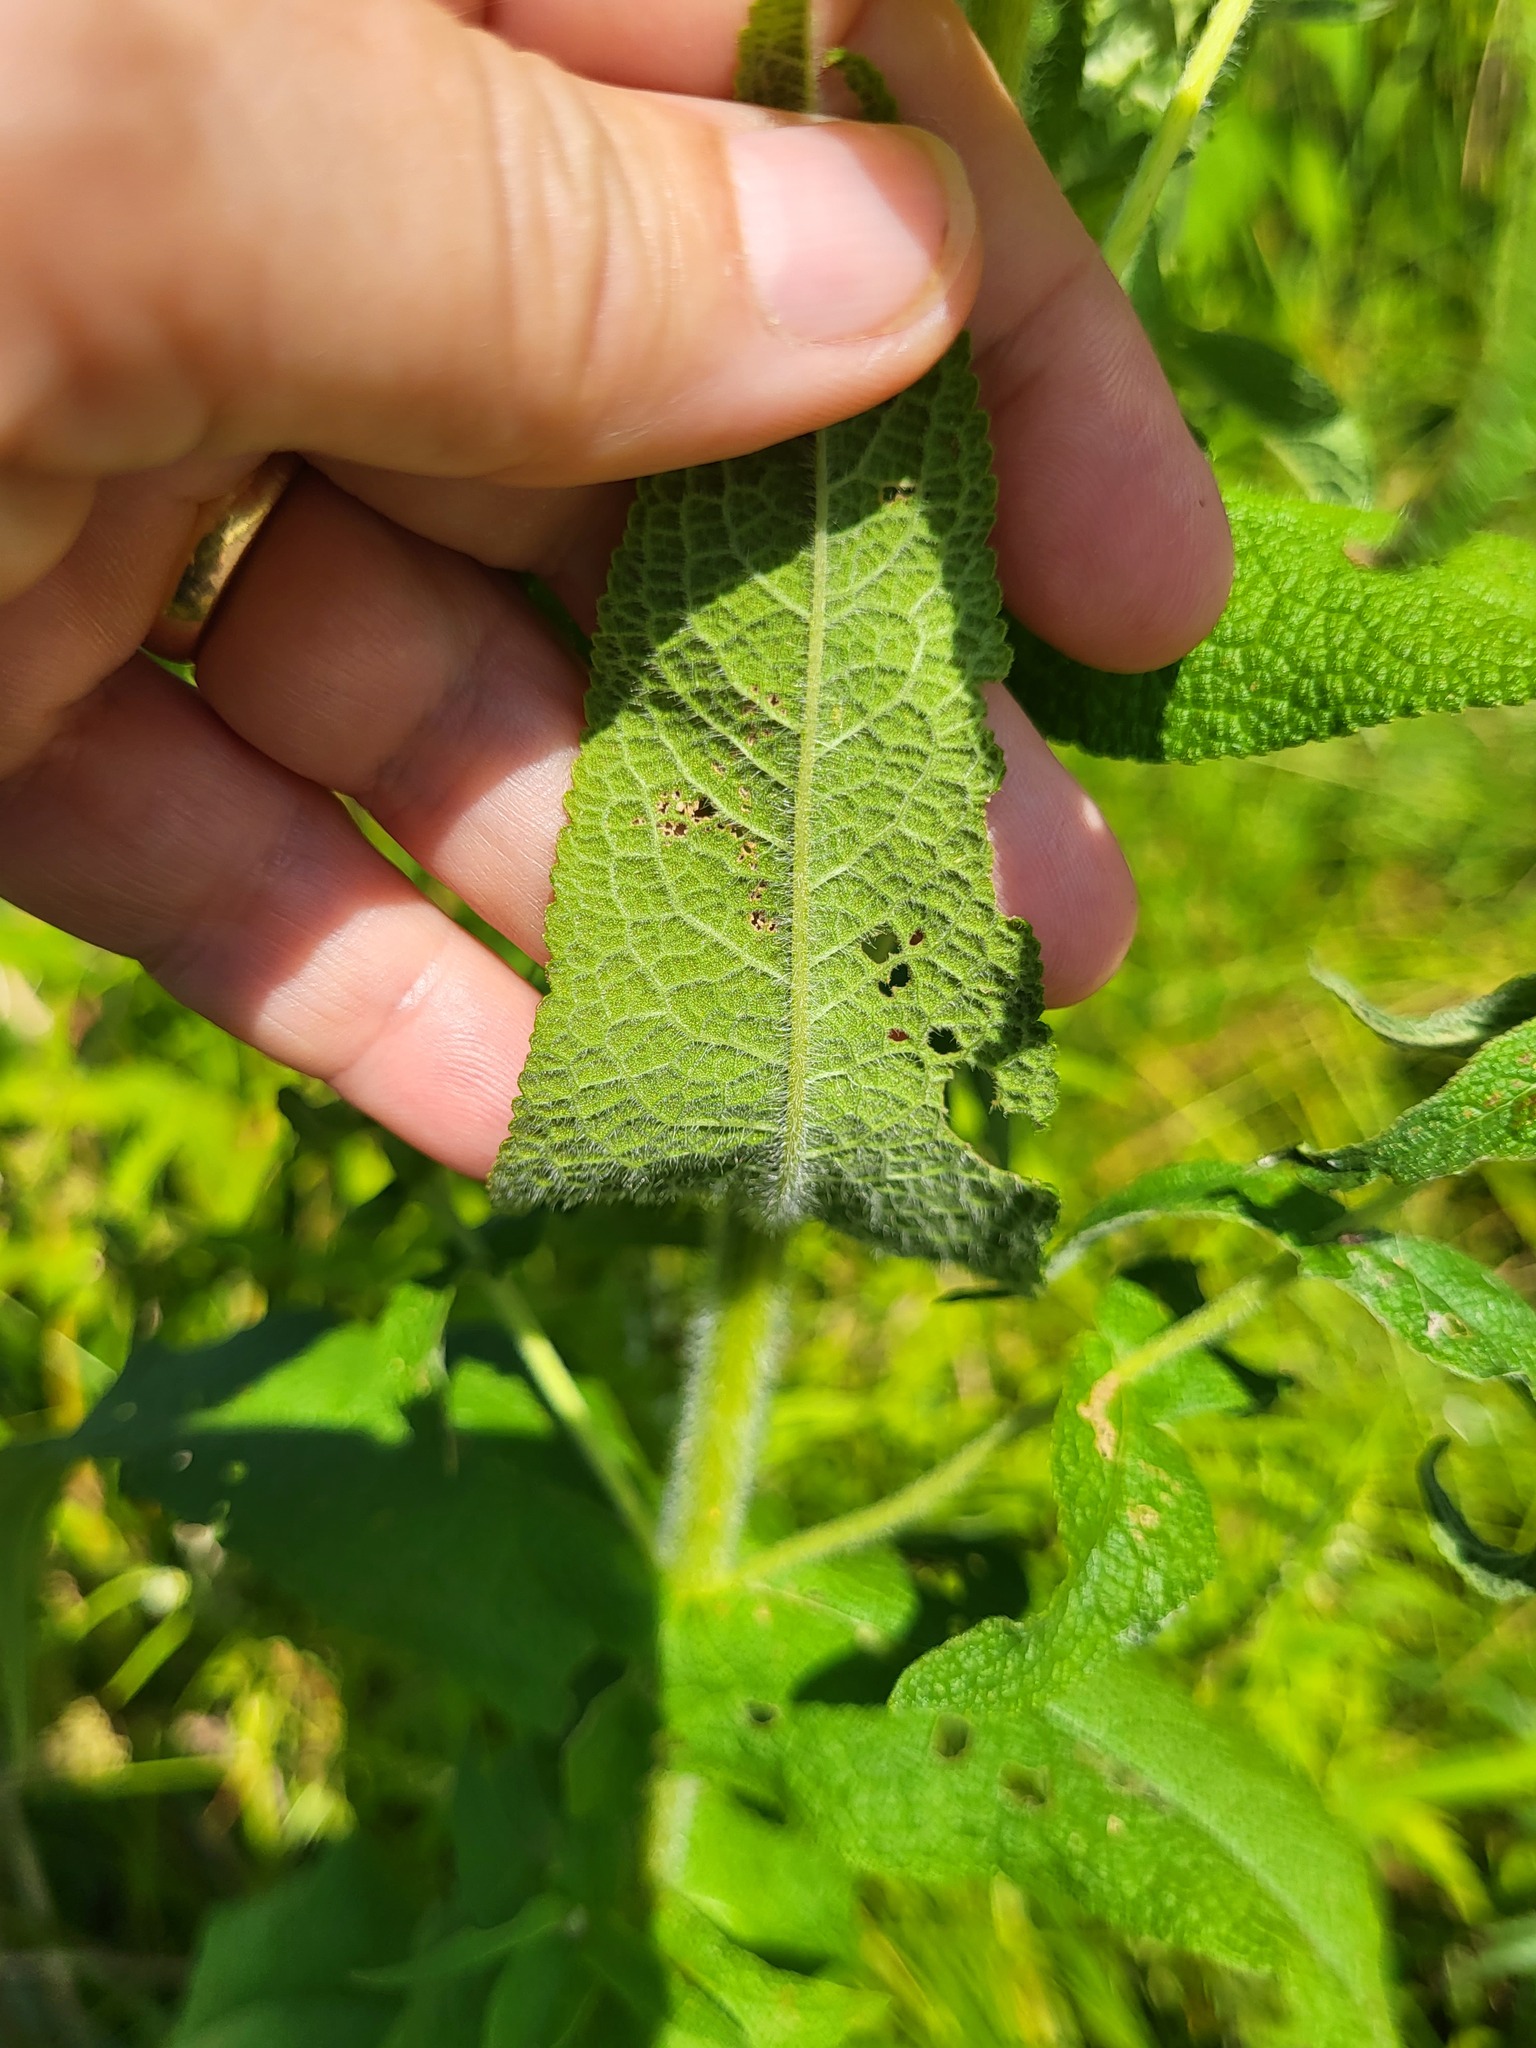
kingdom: Plantae
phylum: Tracheophyta
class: Magnoliopsida
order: Asterales
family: Asteraceae
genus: Eupatorium
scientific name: Eupatorium perfoliatum
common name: Boneset
